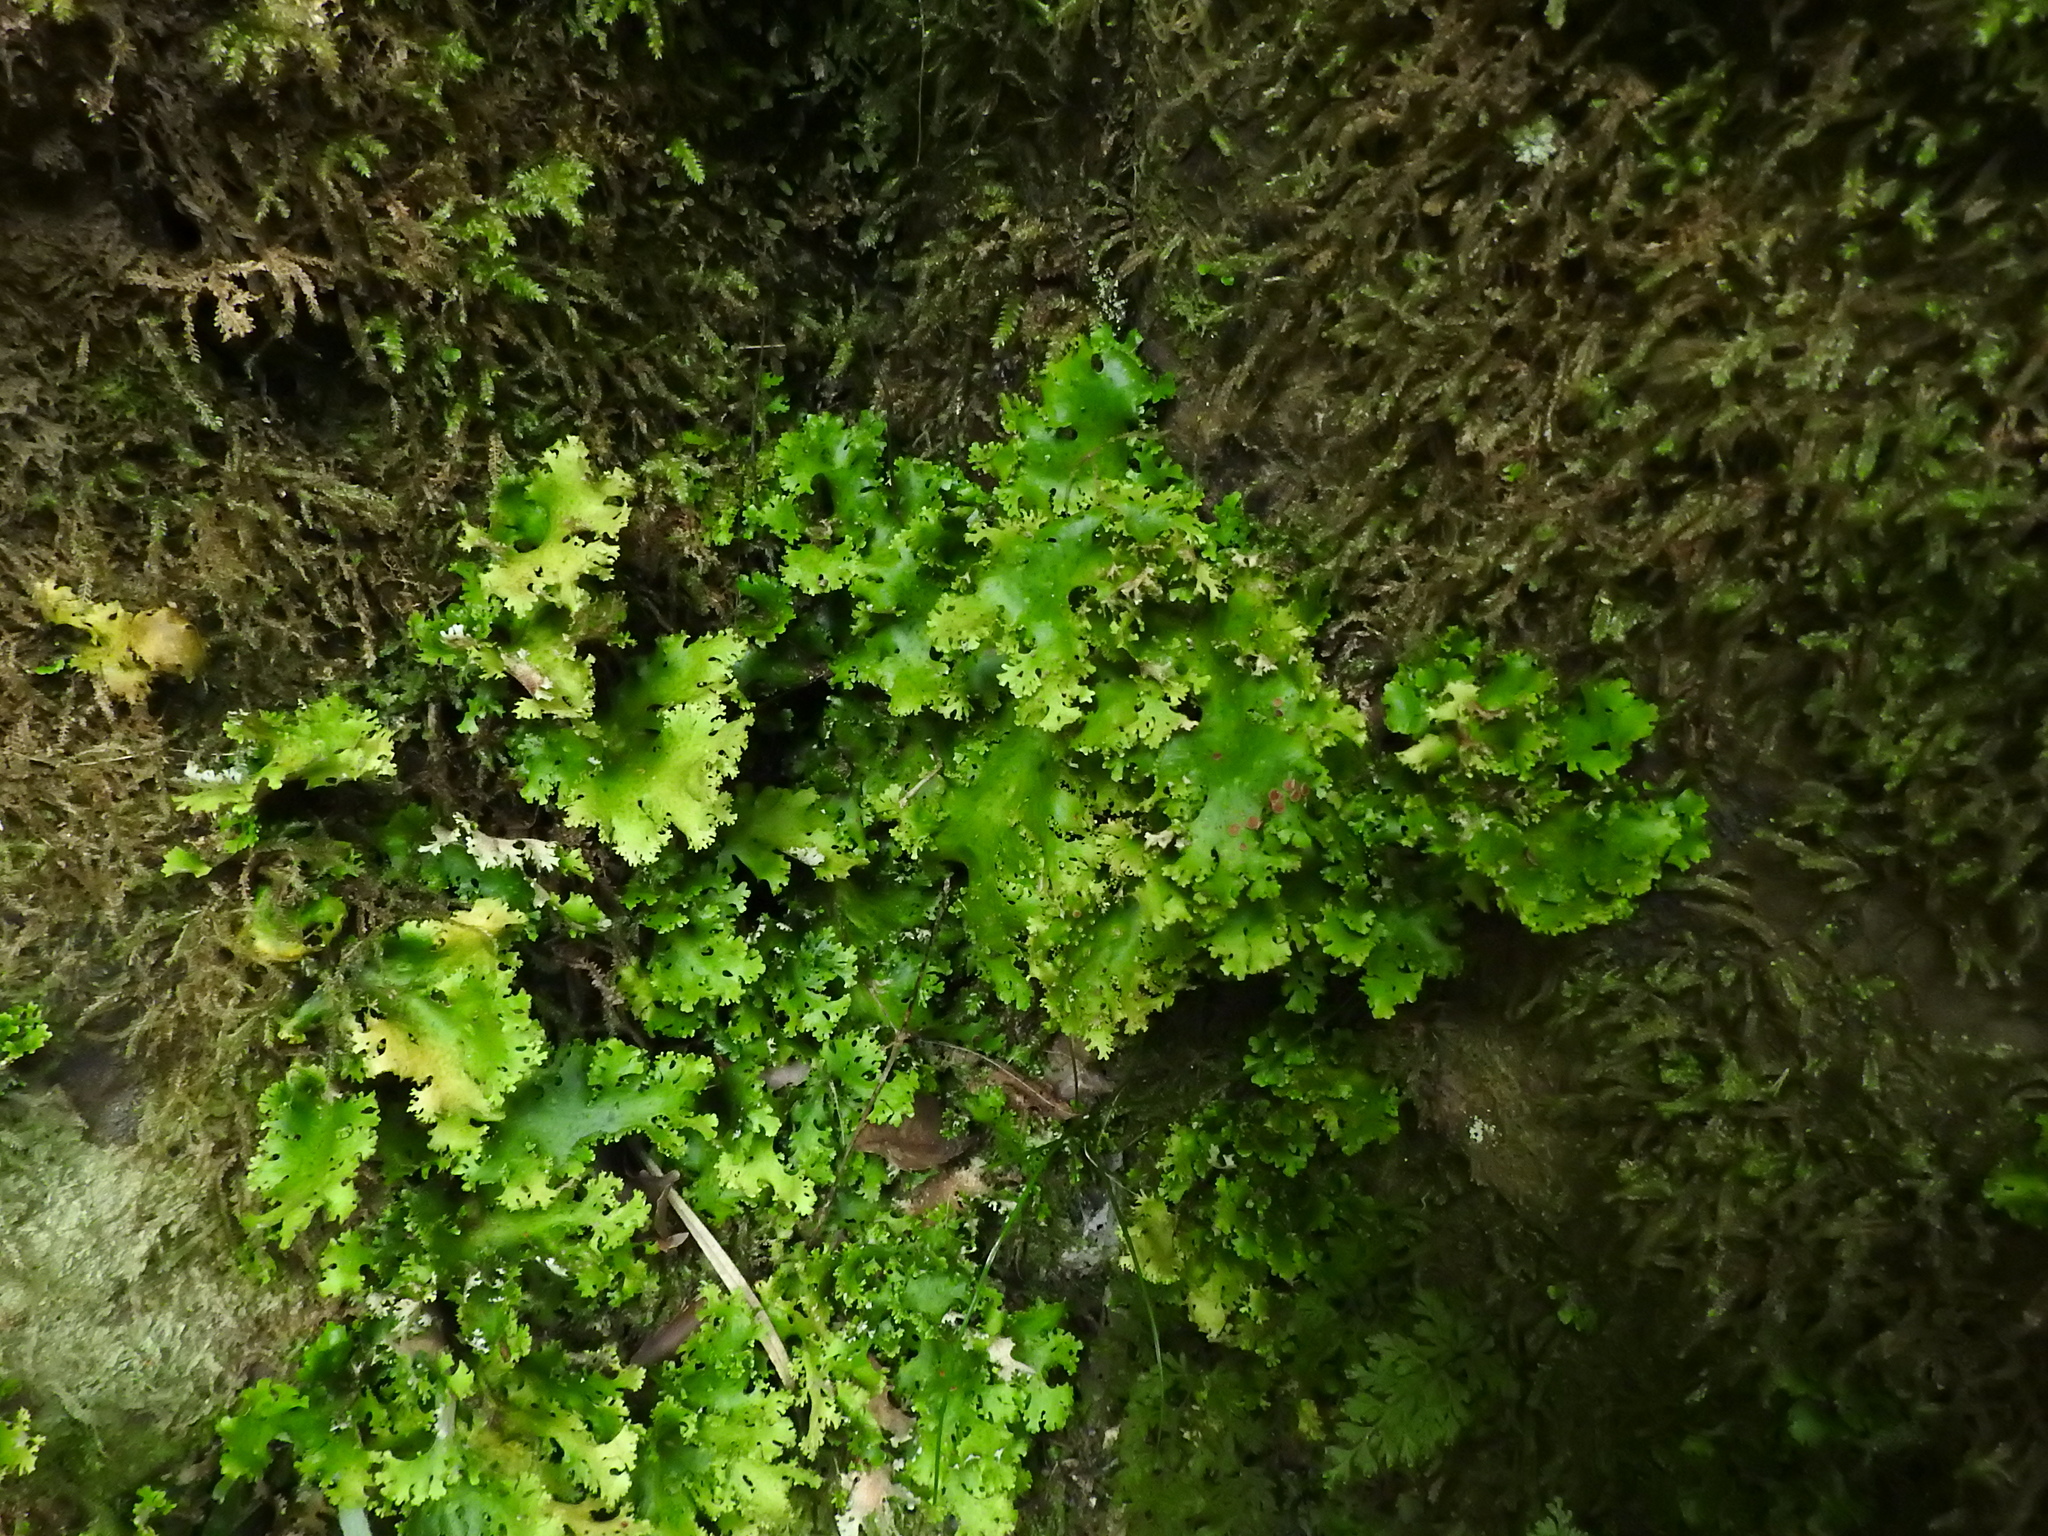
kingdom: Fungi
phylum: Ascomycota
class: Lecanoromycetes
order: Peltigerales
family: Lobariaceae
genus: Sticta
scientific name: Sticta filix
